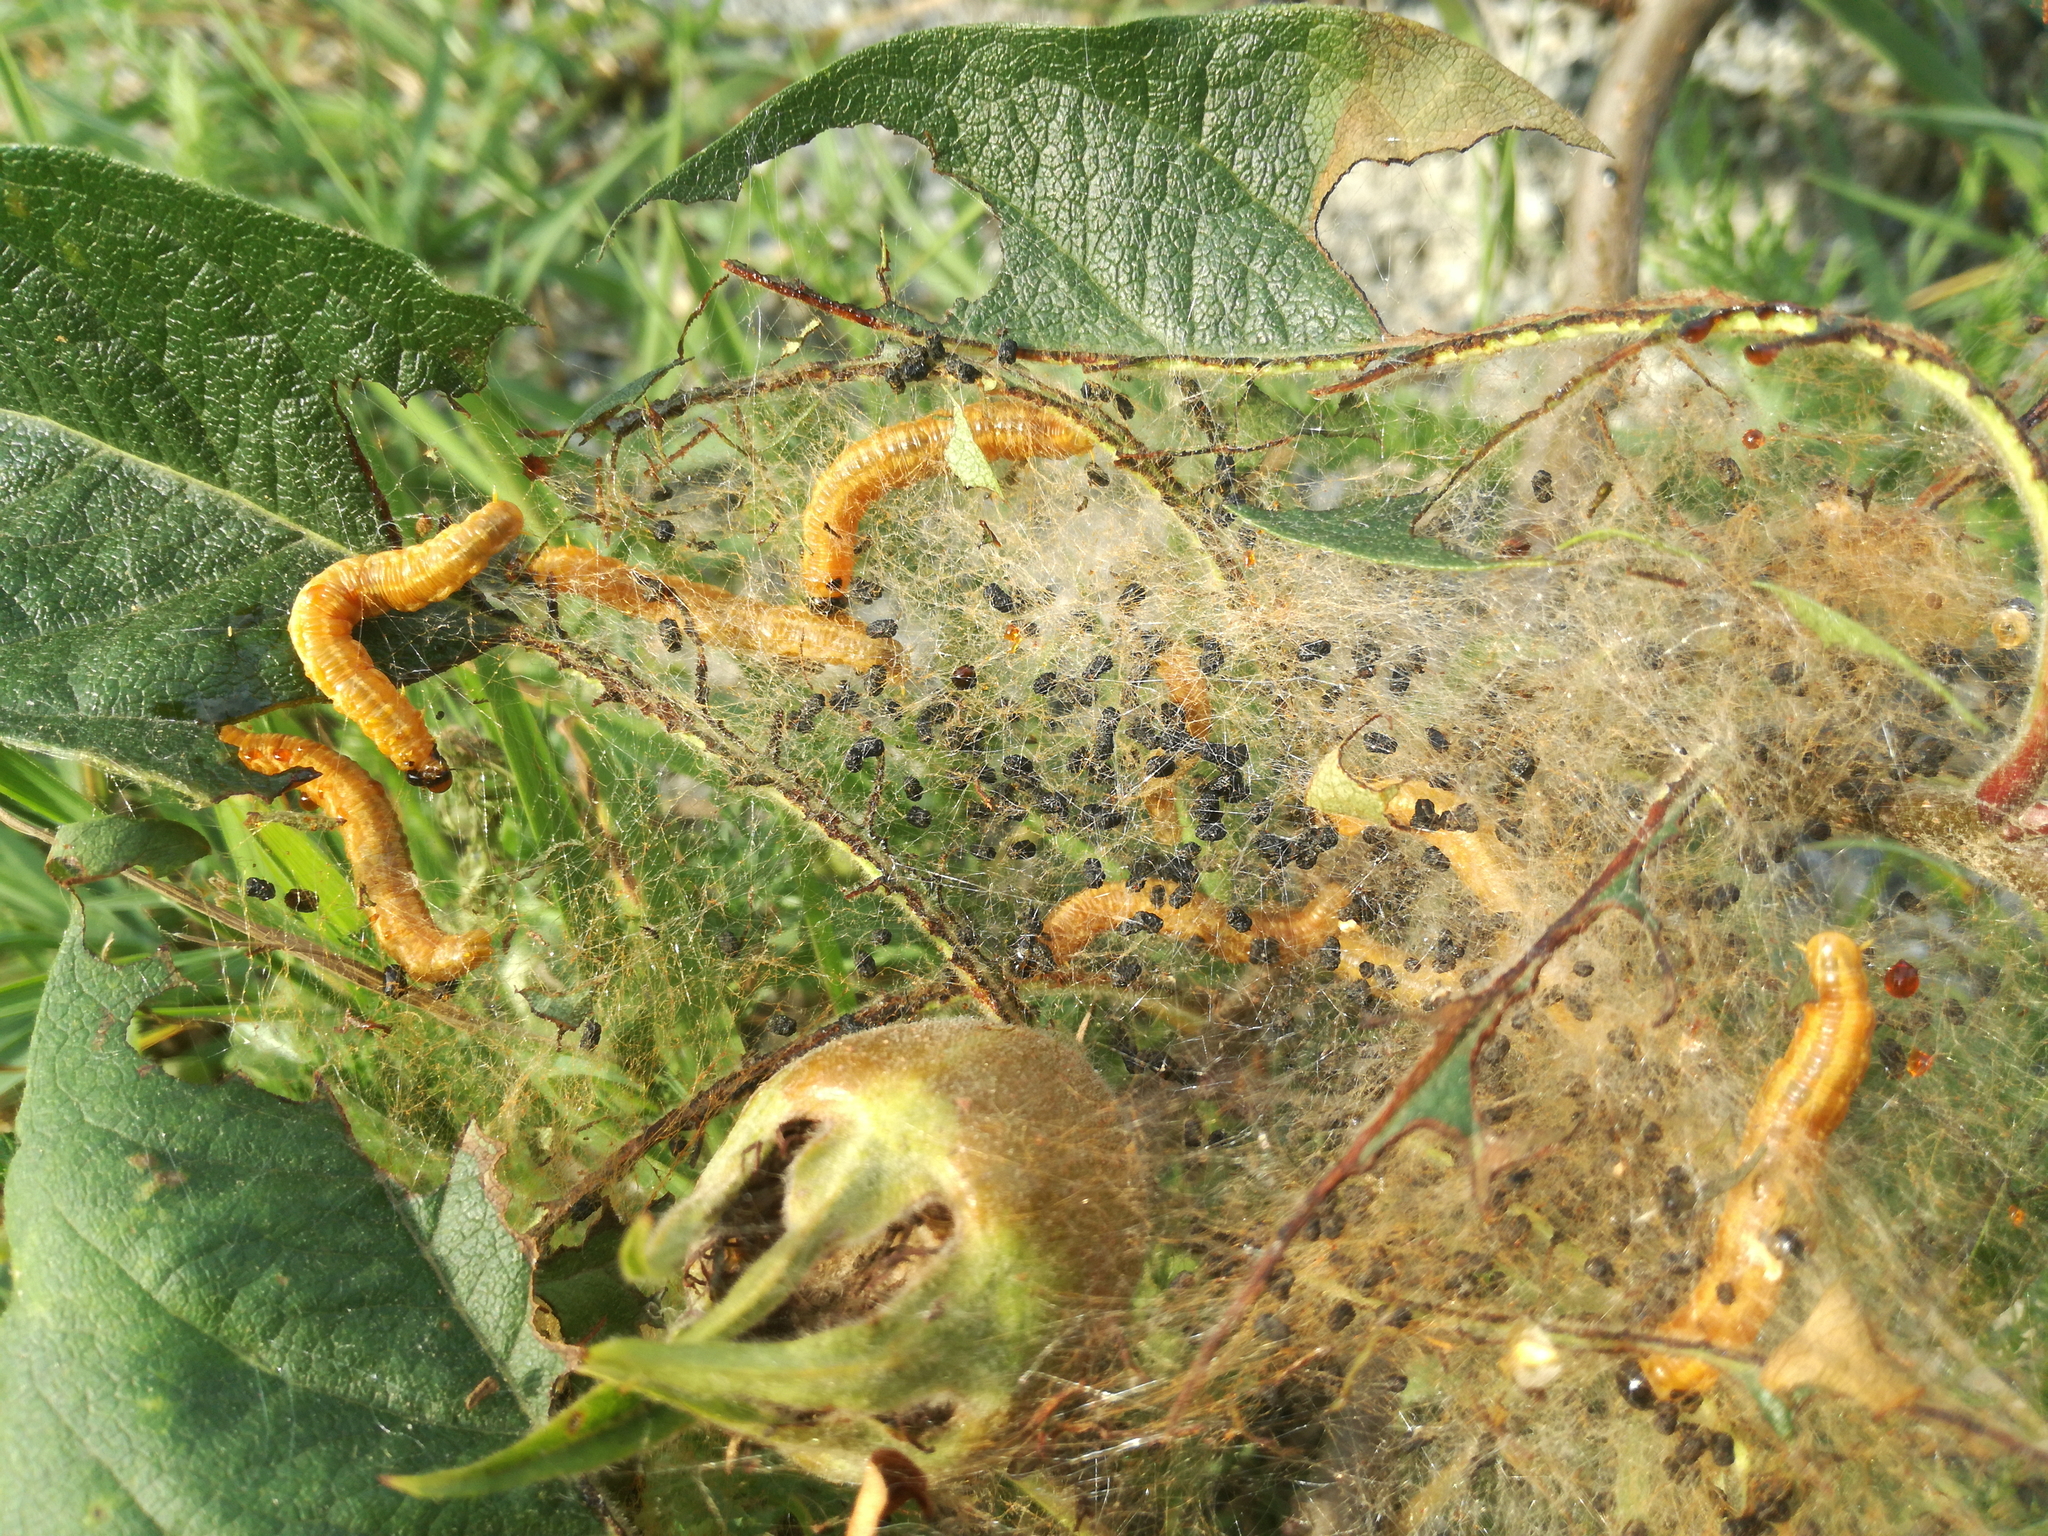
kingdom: Animalia
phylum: Arthropoda
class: Insecta
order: Hymenoptera
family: Pamphiliidae
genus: Neurotoma
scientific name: Neurotoma saltuum
